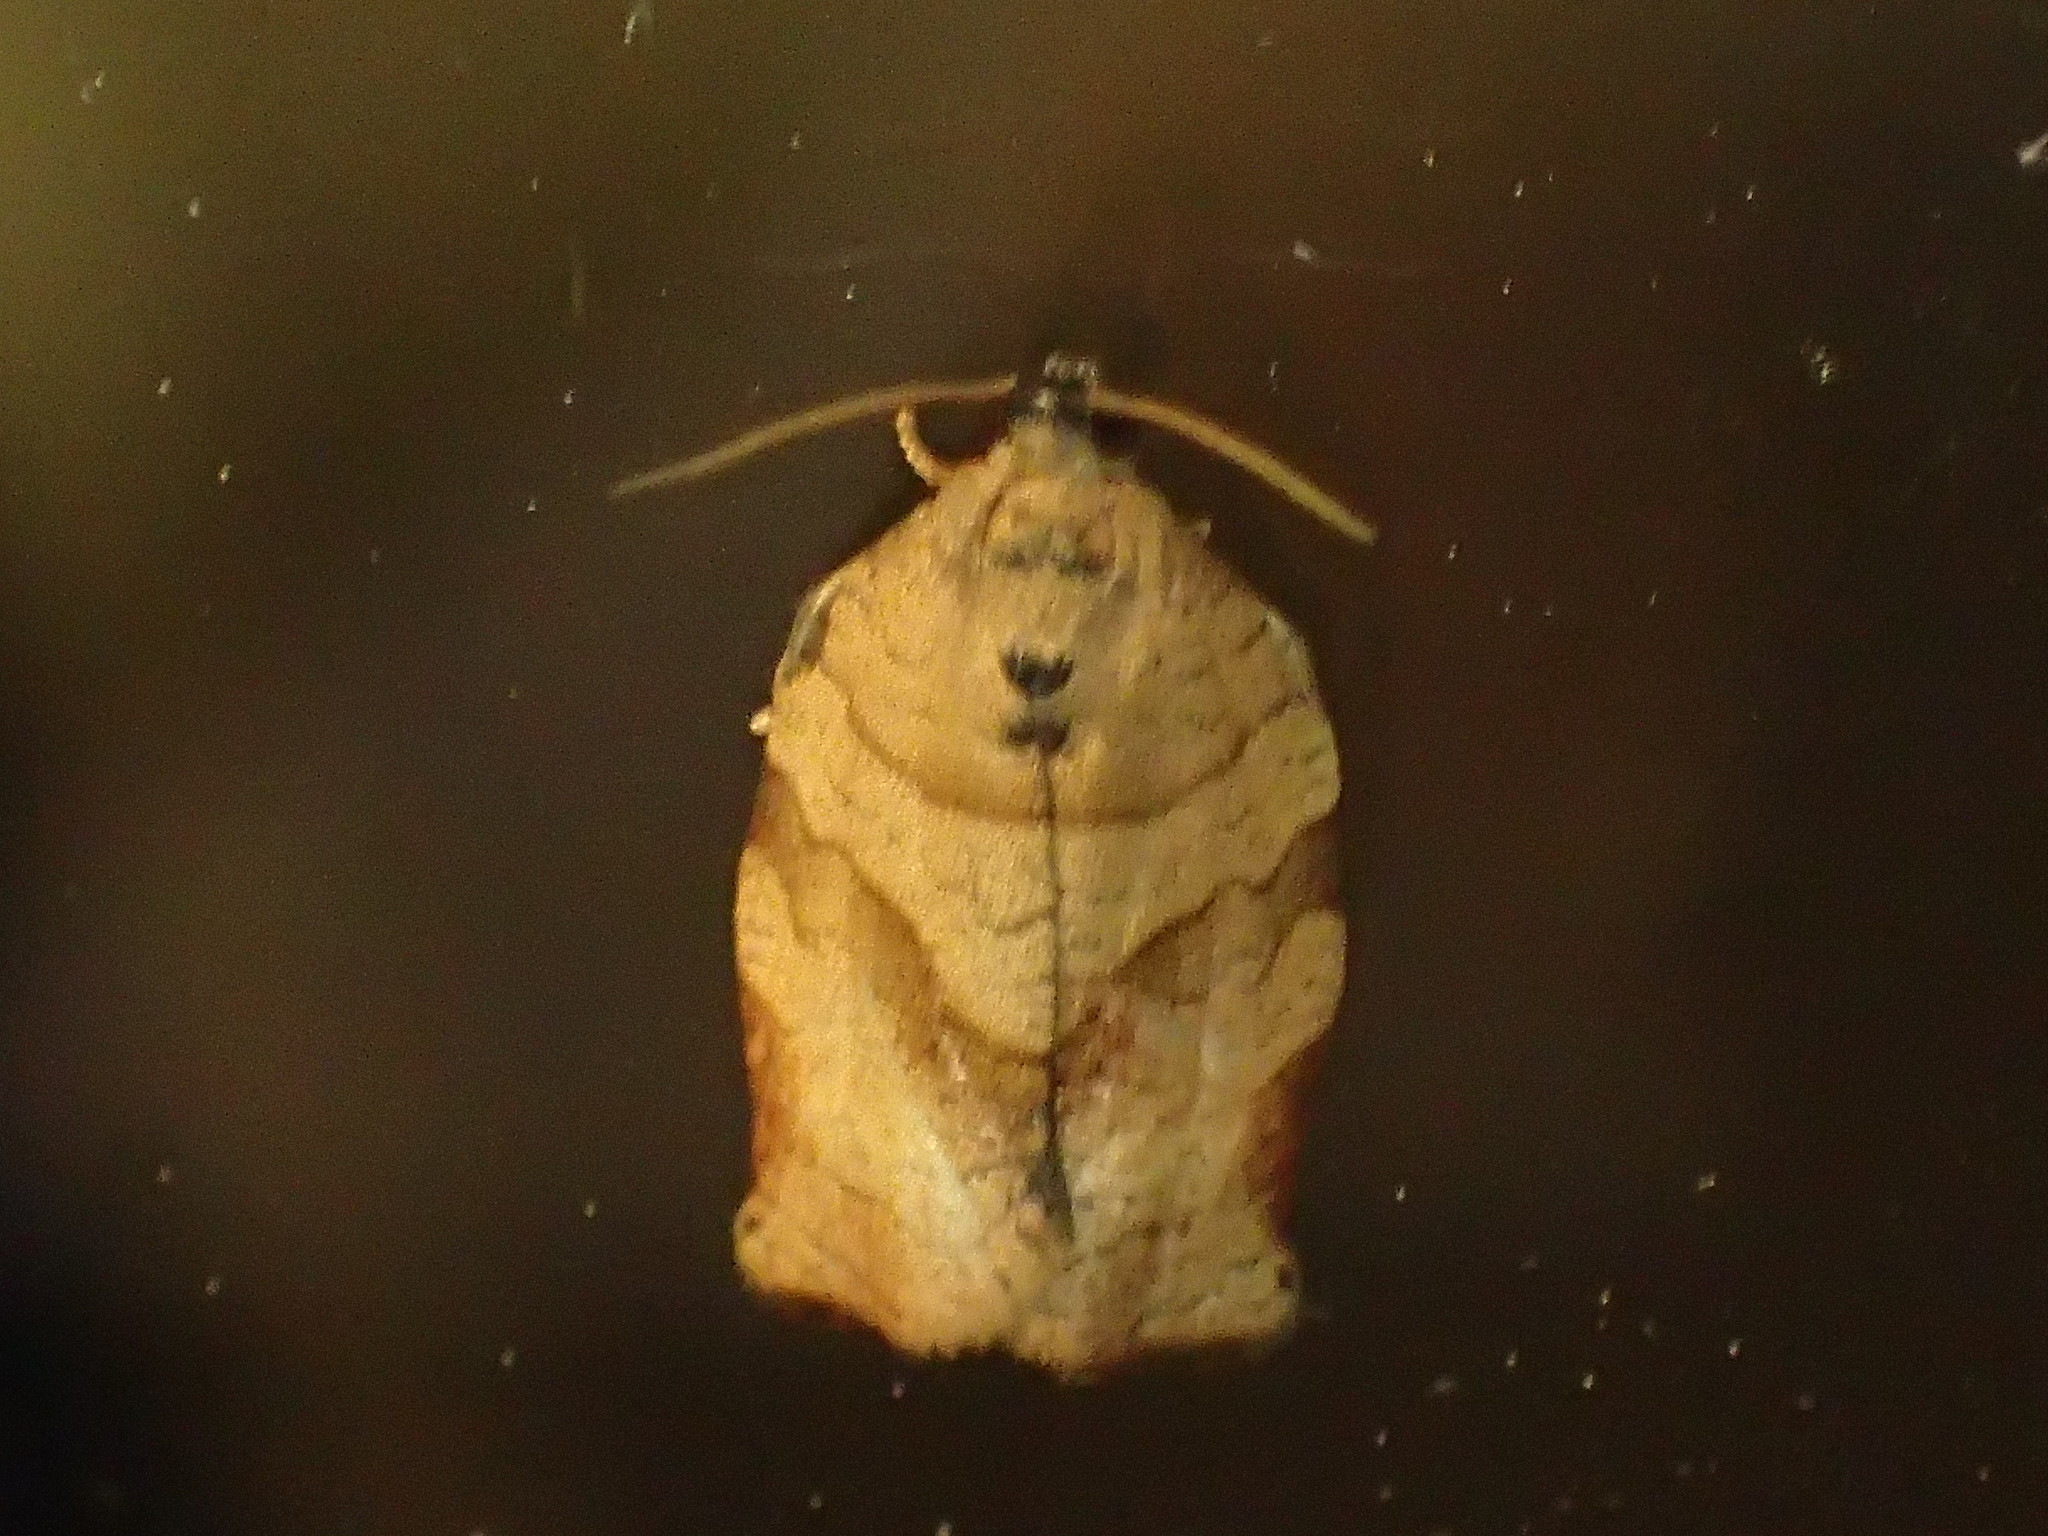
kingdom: Animalia
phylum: Arthropoda
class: Insecta
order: Lepidoptera
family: Tortricidae
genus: Choristoneura
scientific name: Choristoneura rosaceana
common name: Oblique-banded leafroller moth
